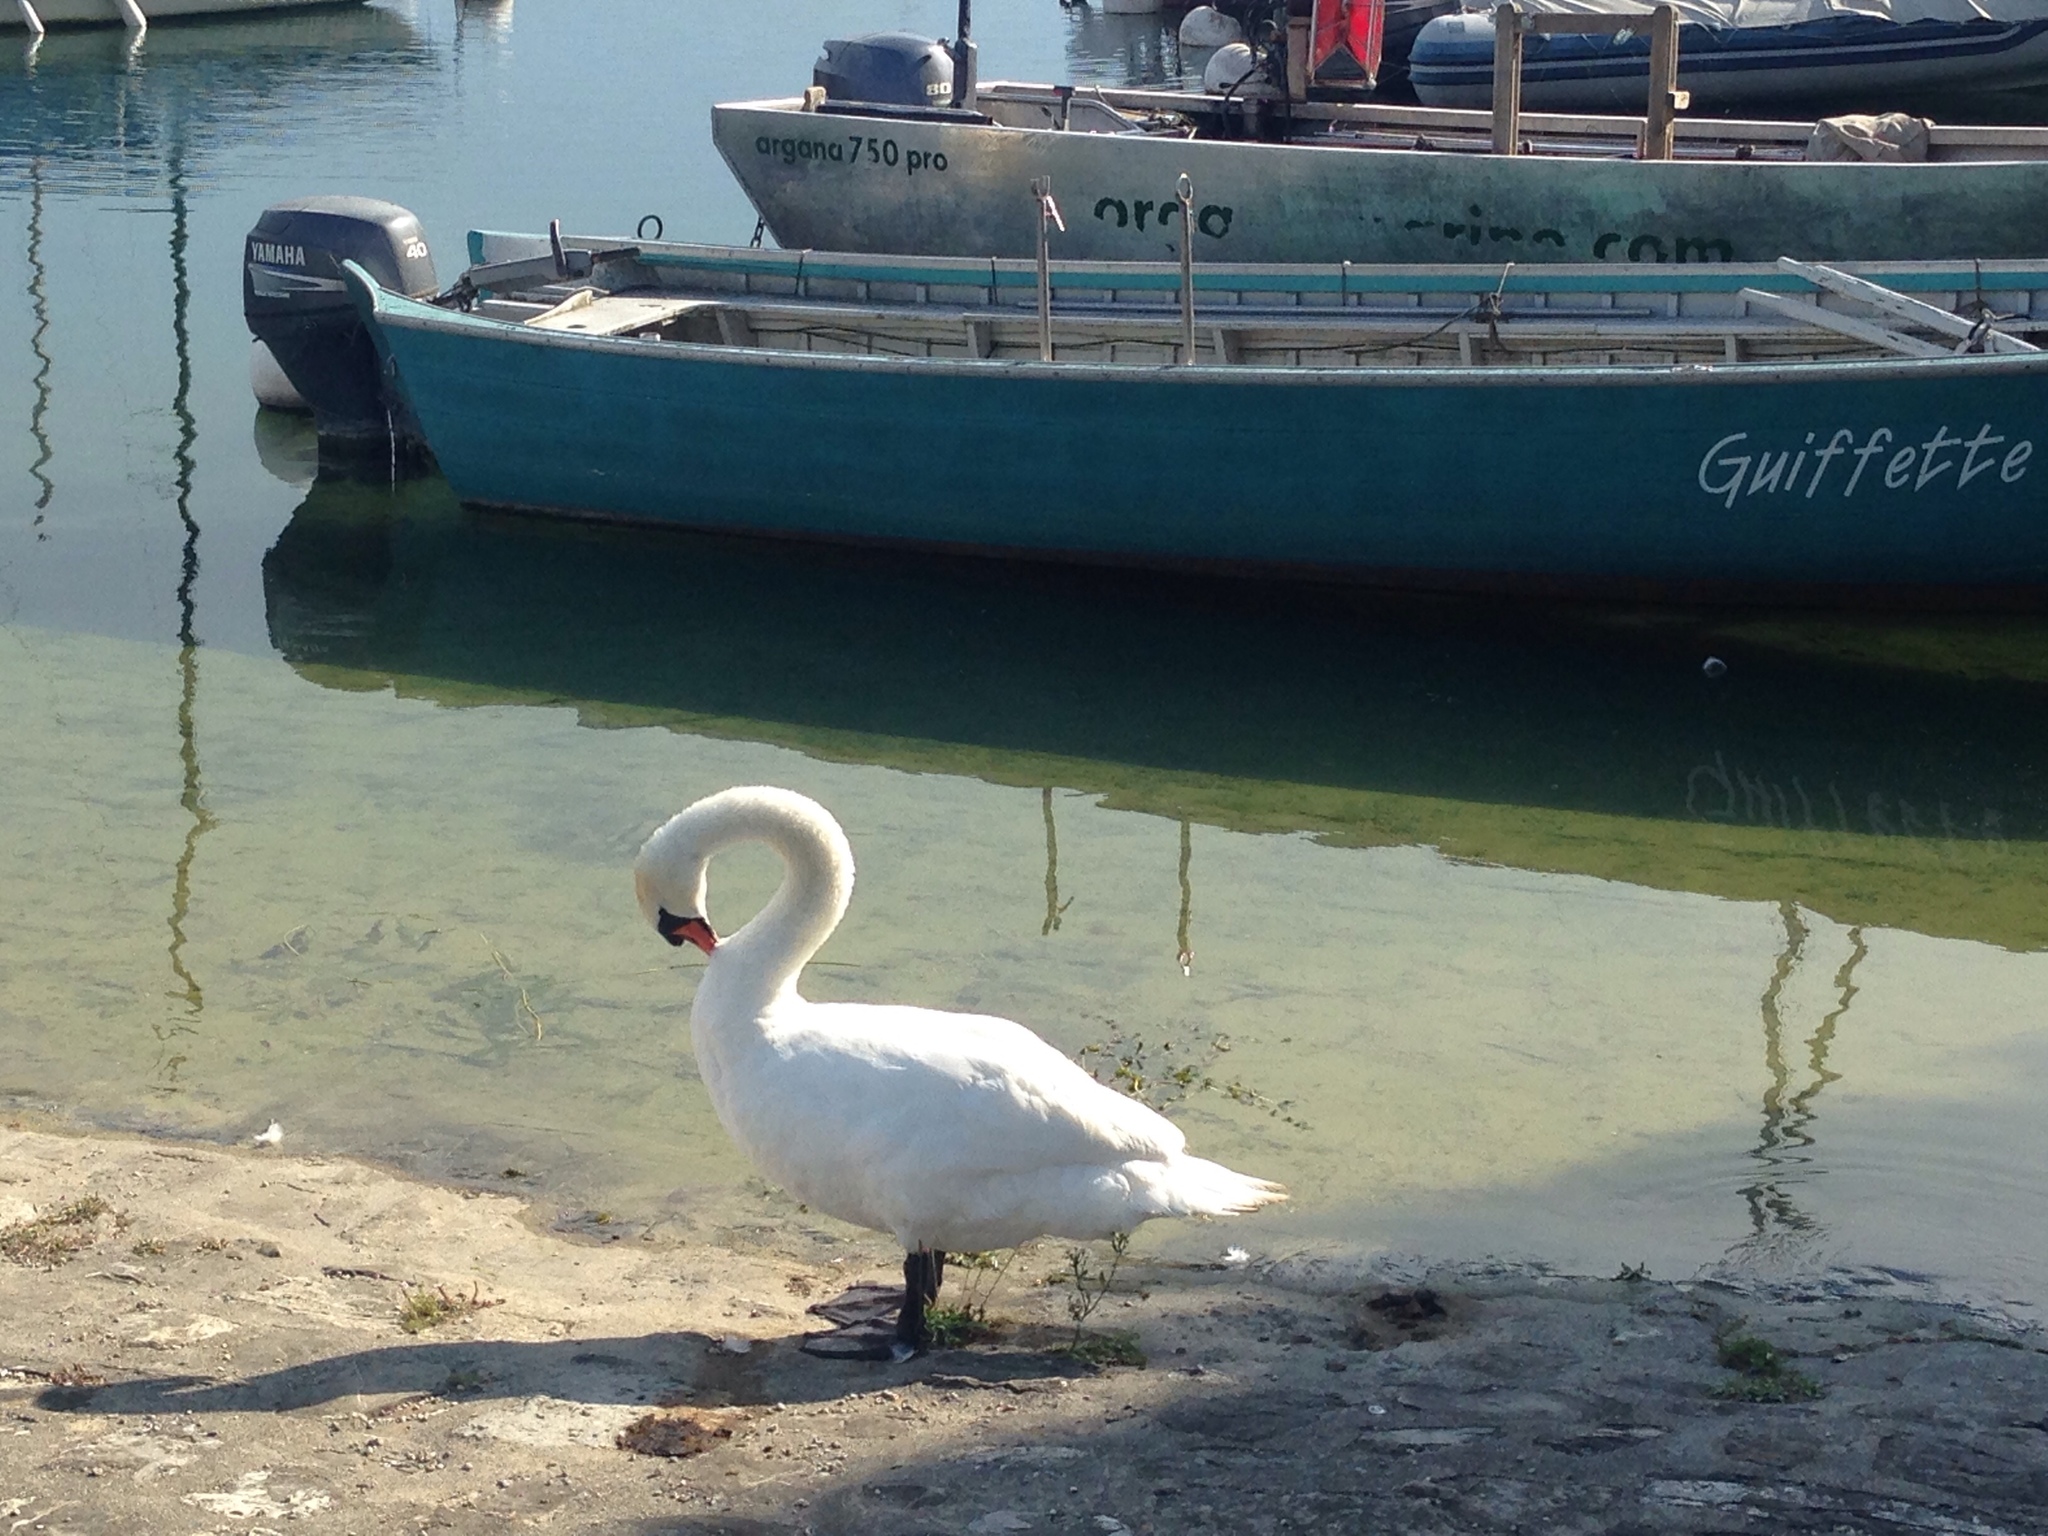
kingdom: Animalia
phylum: Chordata
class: Aves
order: Anseriformes
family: Anatidae
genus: Cygnus
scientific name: Cygnus olor
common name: Mute swan
